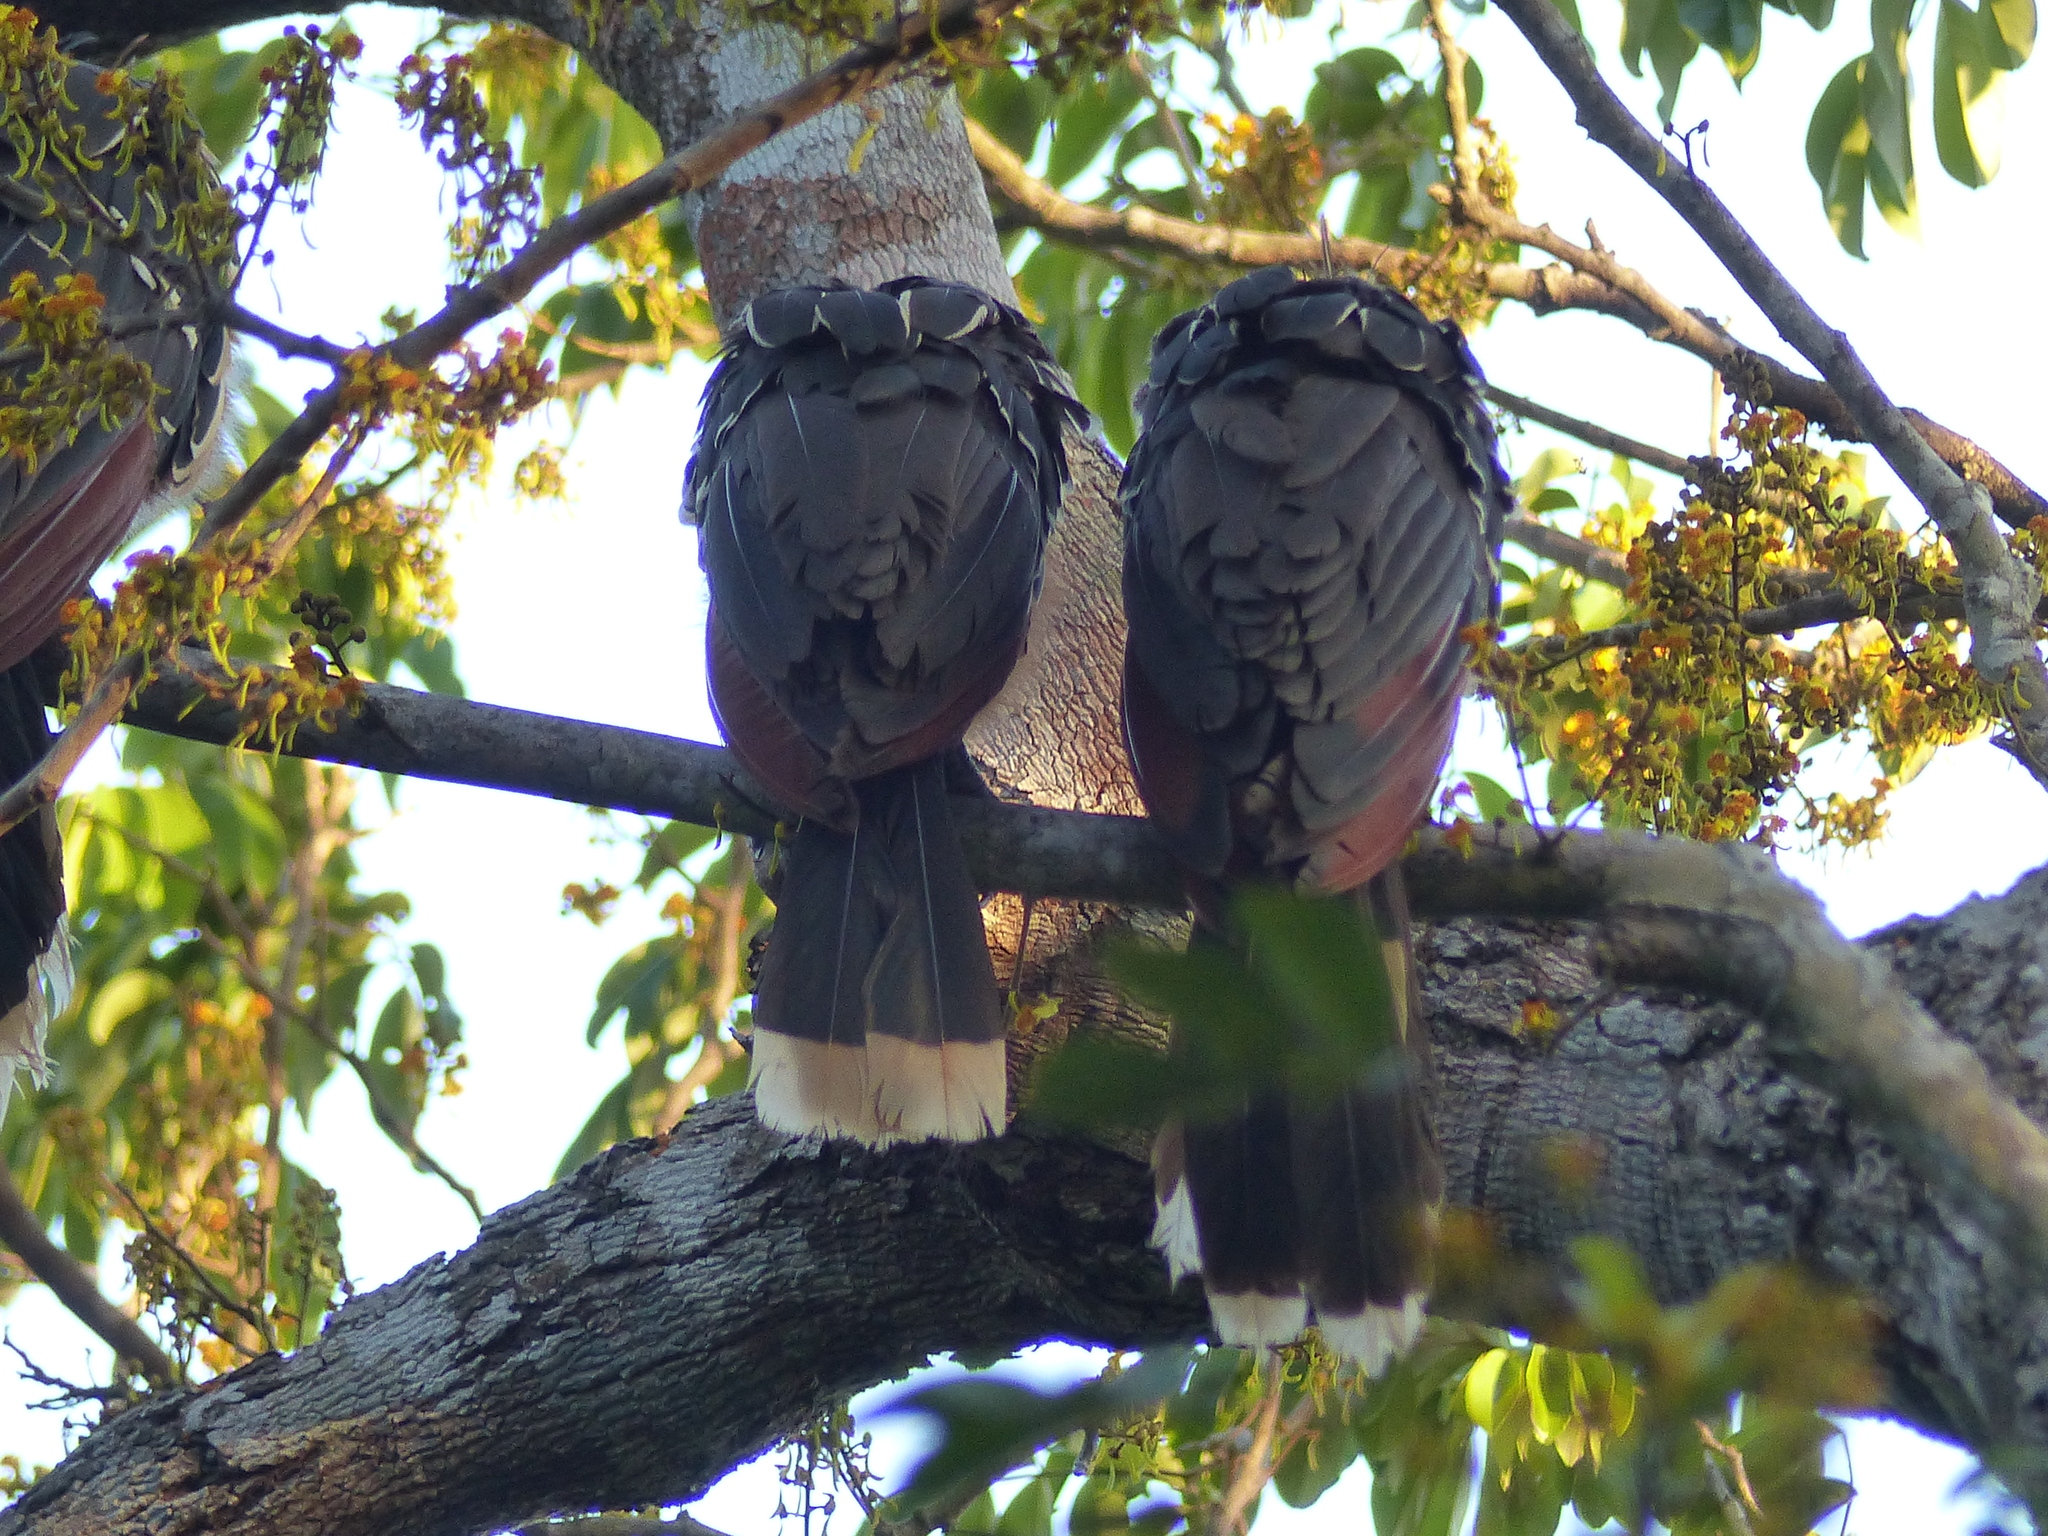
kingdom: Animalia
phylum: Chordata
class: Aves
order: Opisthocomiformes
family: Opisthocomidae
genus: Opisthocomus
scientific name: Opisthocomus hoazin
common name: Hoatzin
